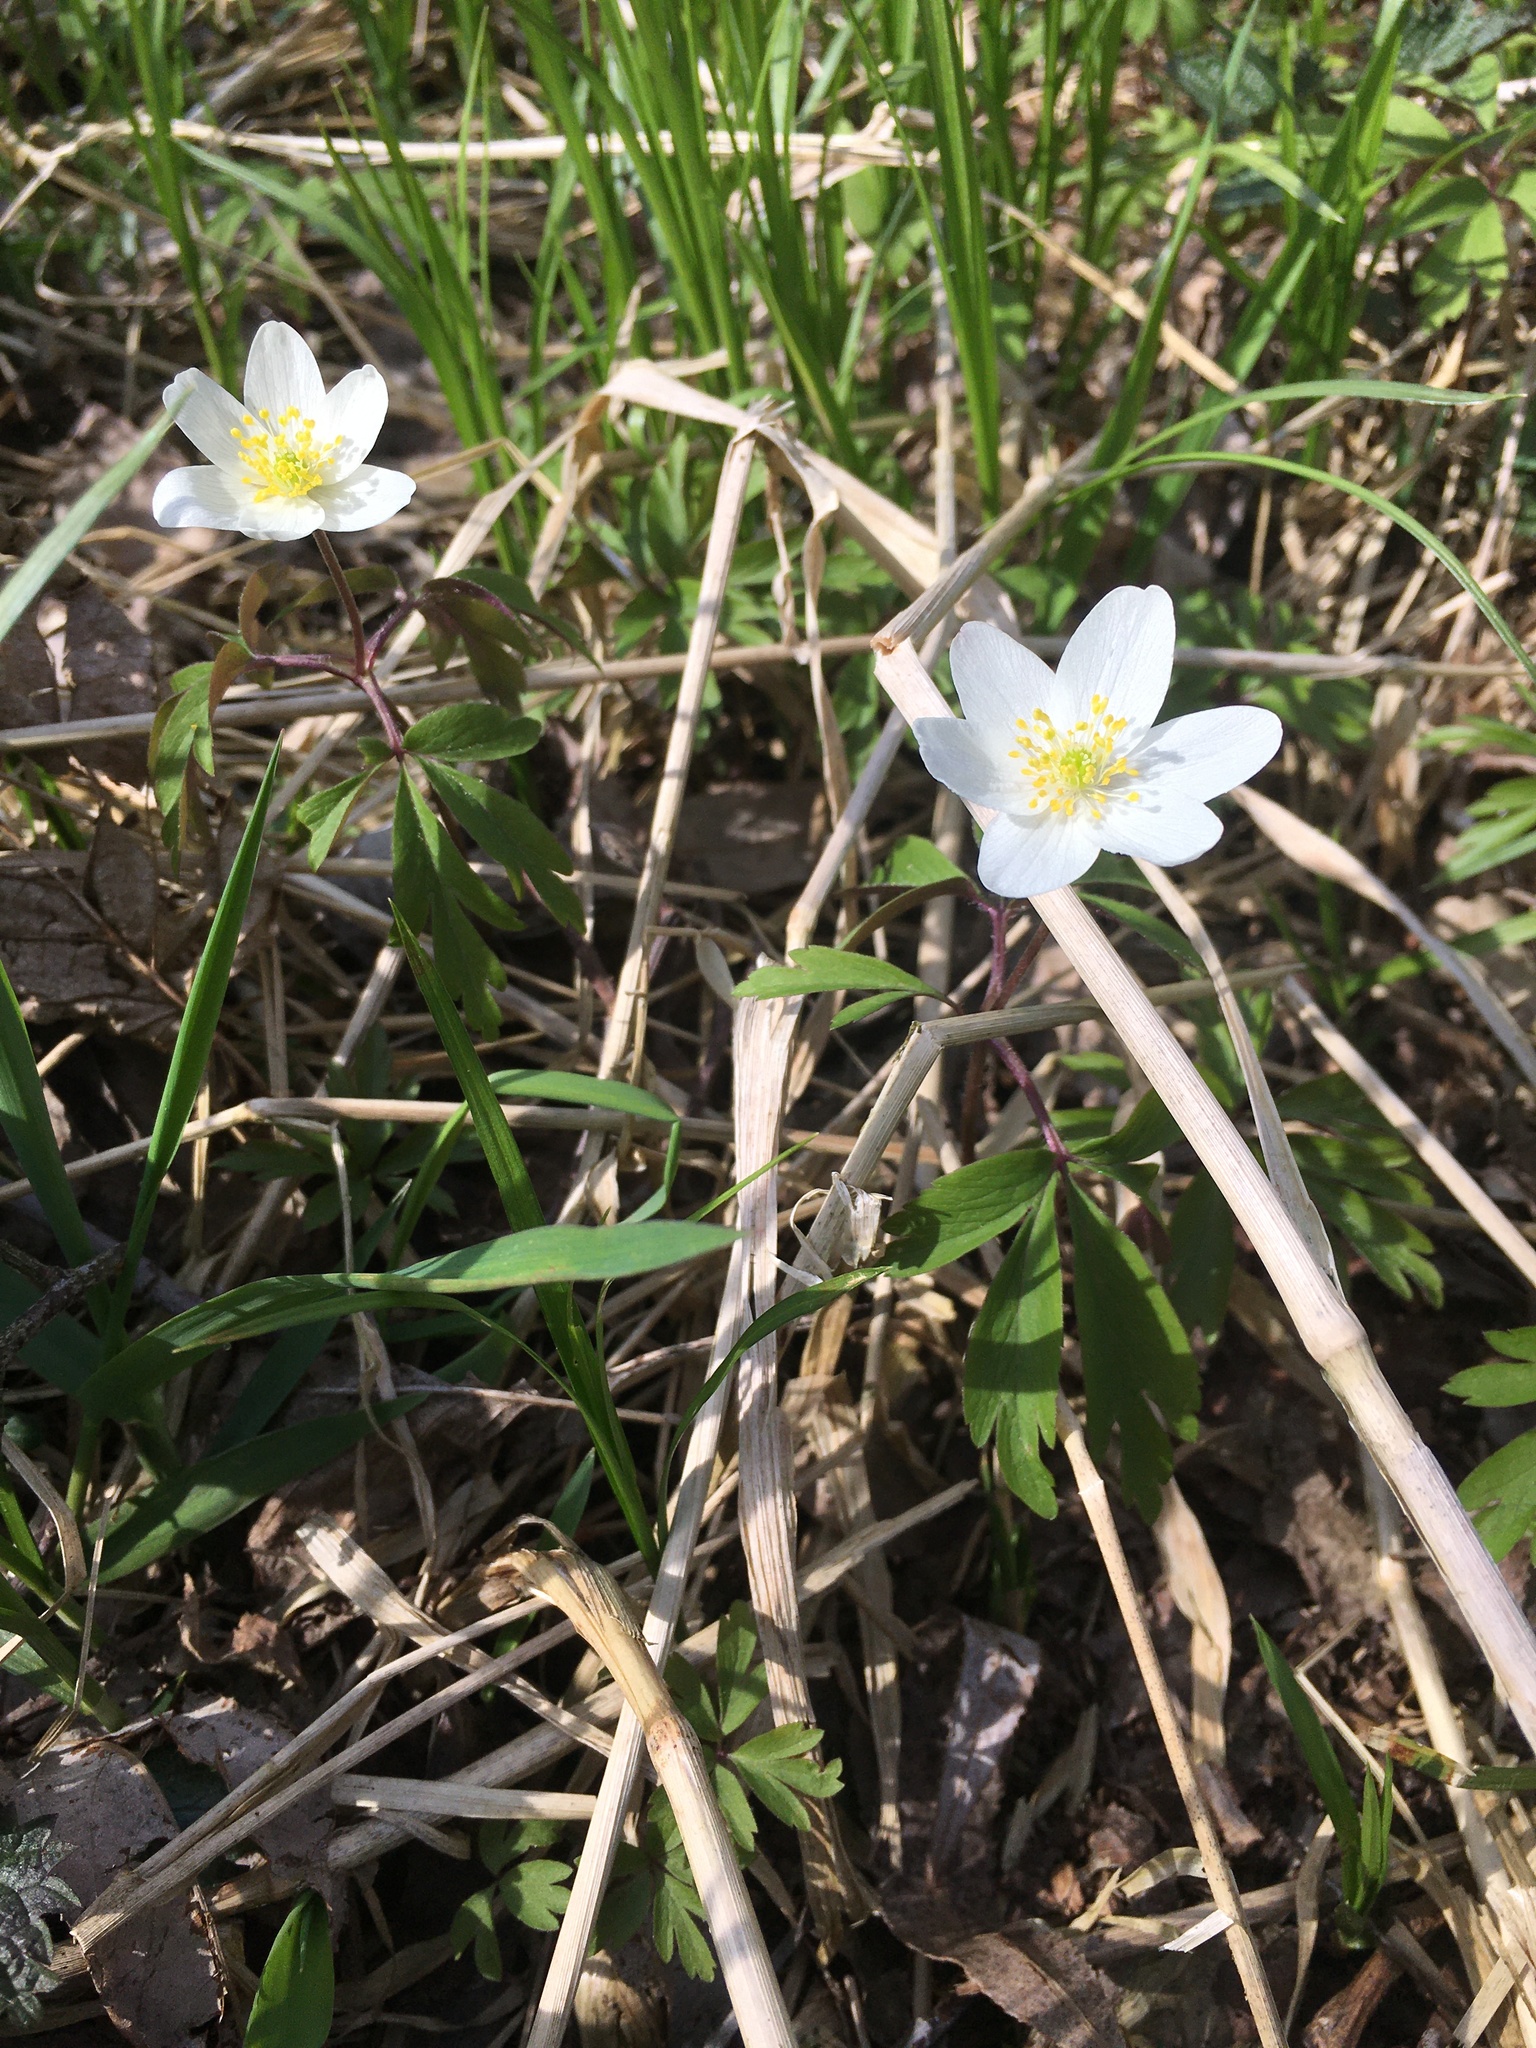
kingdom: Plantae
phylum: Tracheophyta
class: Magnoliopsida
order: Ranunculales
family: Ranunculaceae
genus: Anemone
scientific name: Anemone nemorosa
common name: Wood anemone
